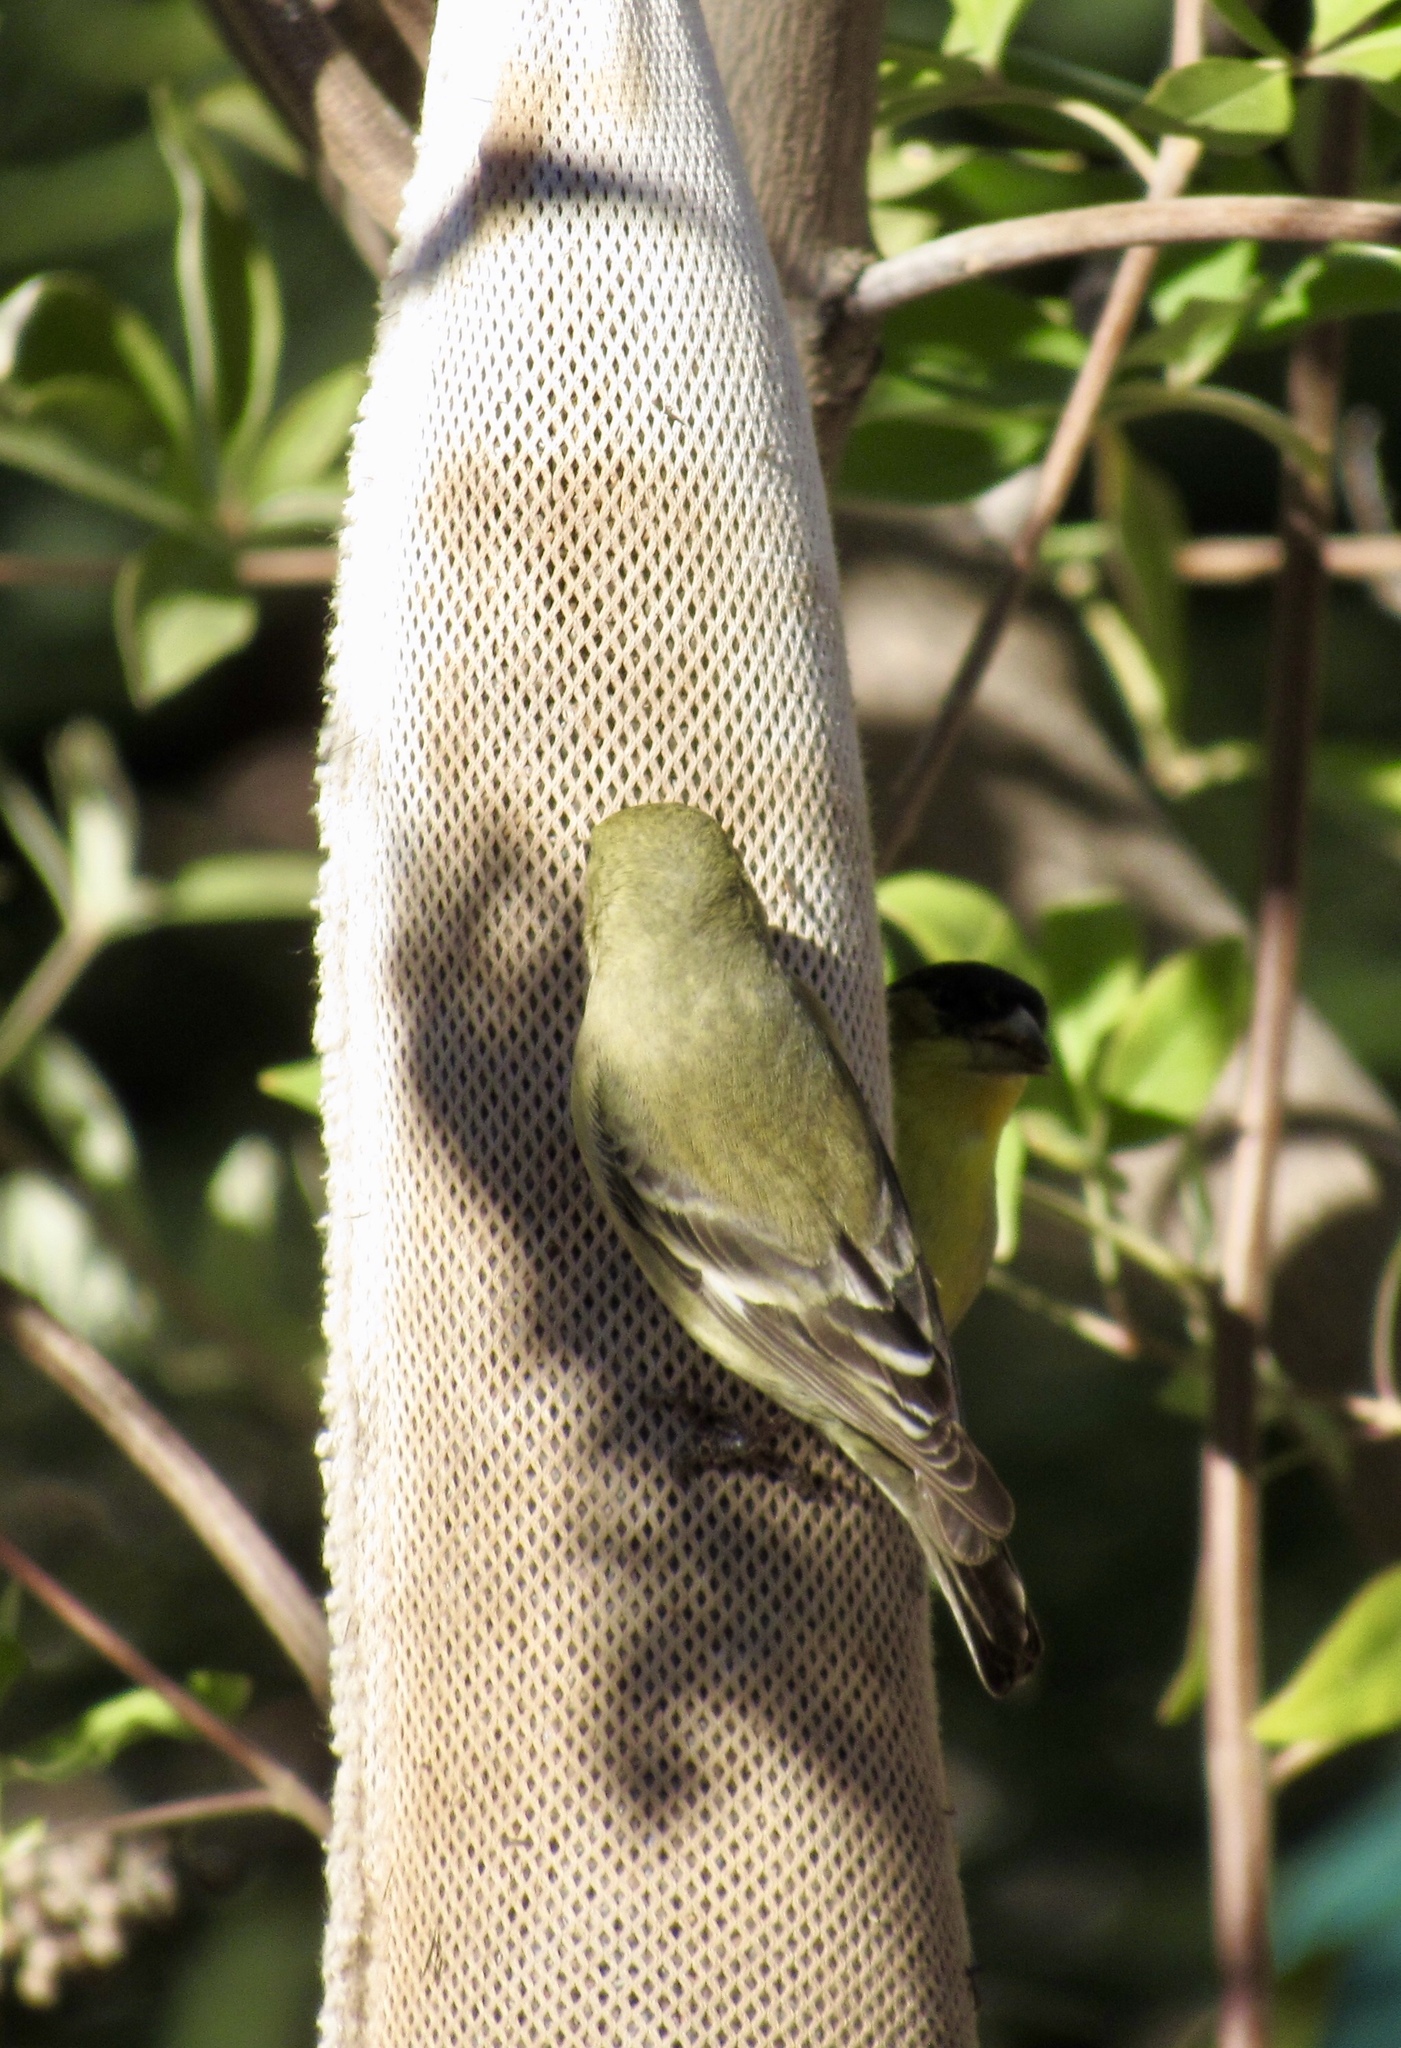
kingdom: Animalia
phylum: Chordata
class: Aves
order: Passeriformes
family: Fringillidae
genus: Spinus
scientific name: Spinus psaltria
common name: Lesser goldfinch
